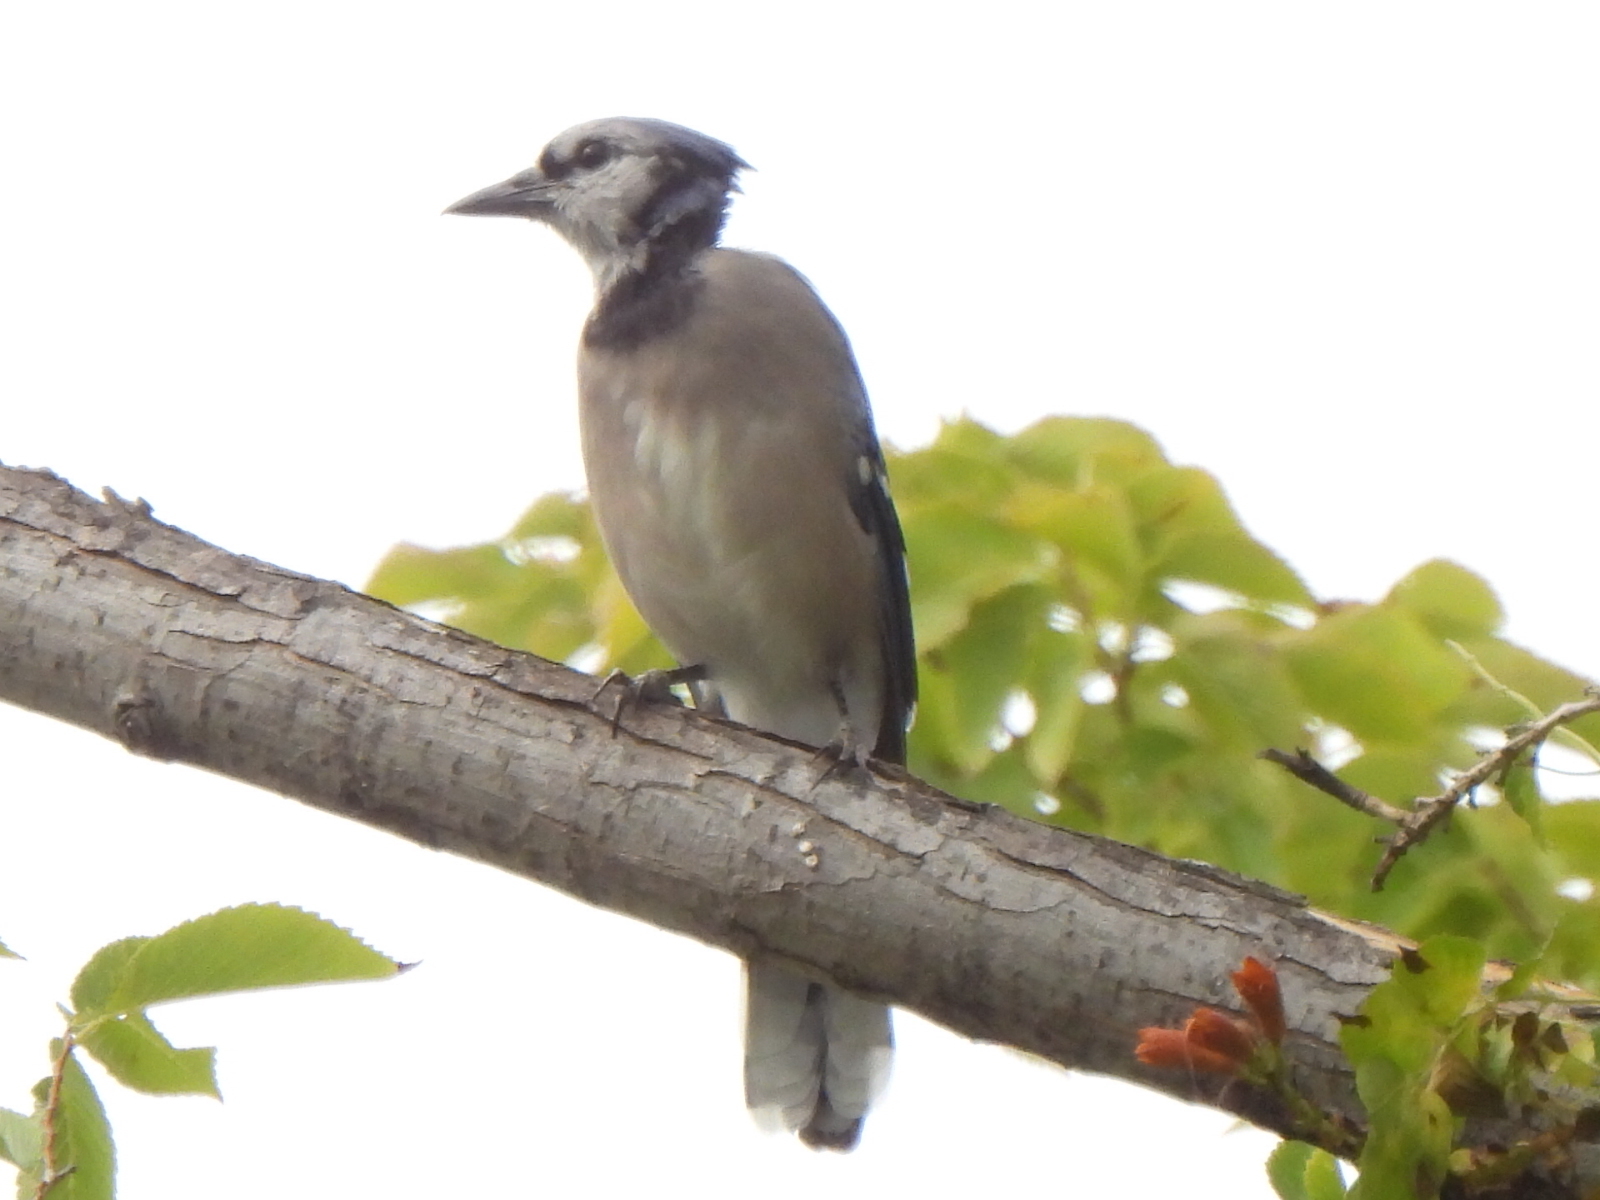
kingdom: Animalia
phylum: Chordata
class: Aves
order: Passeriformes
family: Corvidae
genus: Cyanocitta
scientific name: Cyanocitta cristata
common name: Blue jay
